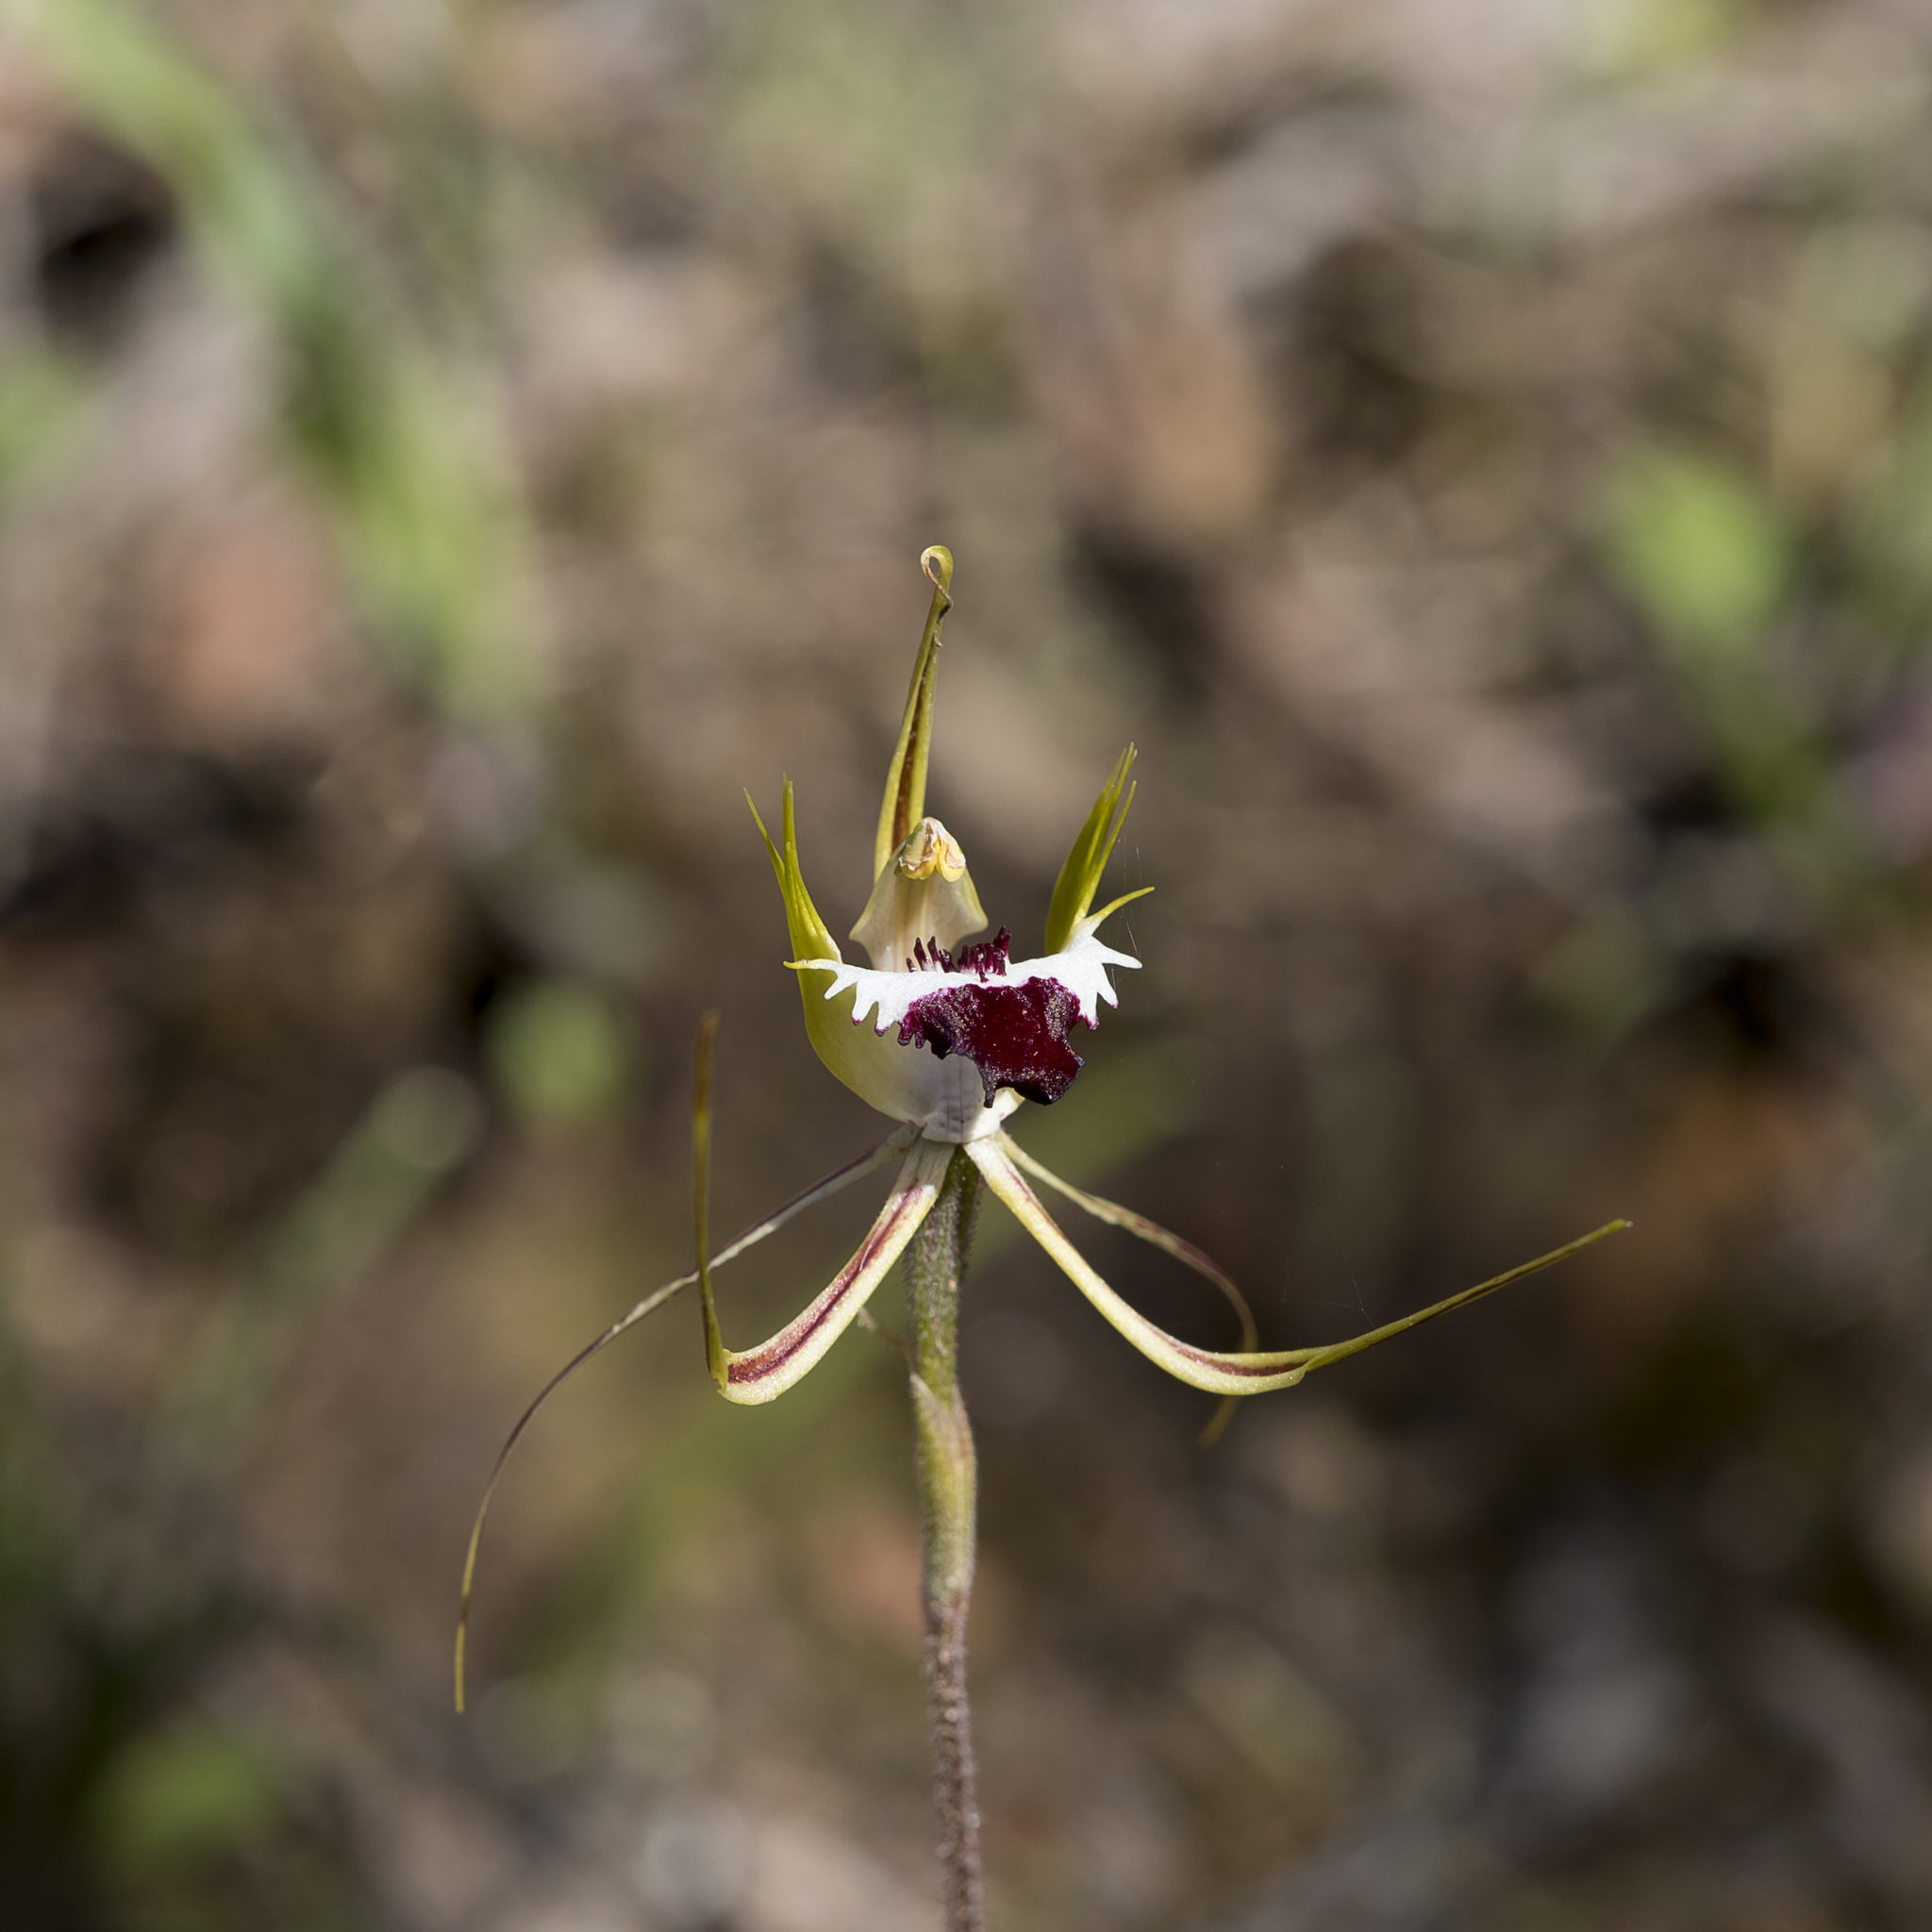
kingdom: Plantae
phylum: Tracheophyta
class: Liliopsida
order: Asparagales
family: Orchidaceae
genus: Caladenia
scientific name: Caladenia tentaculata
